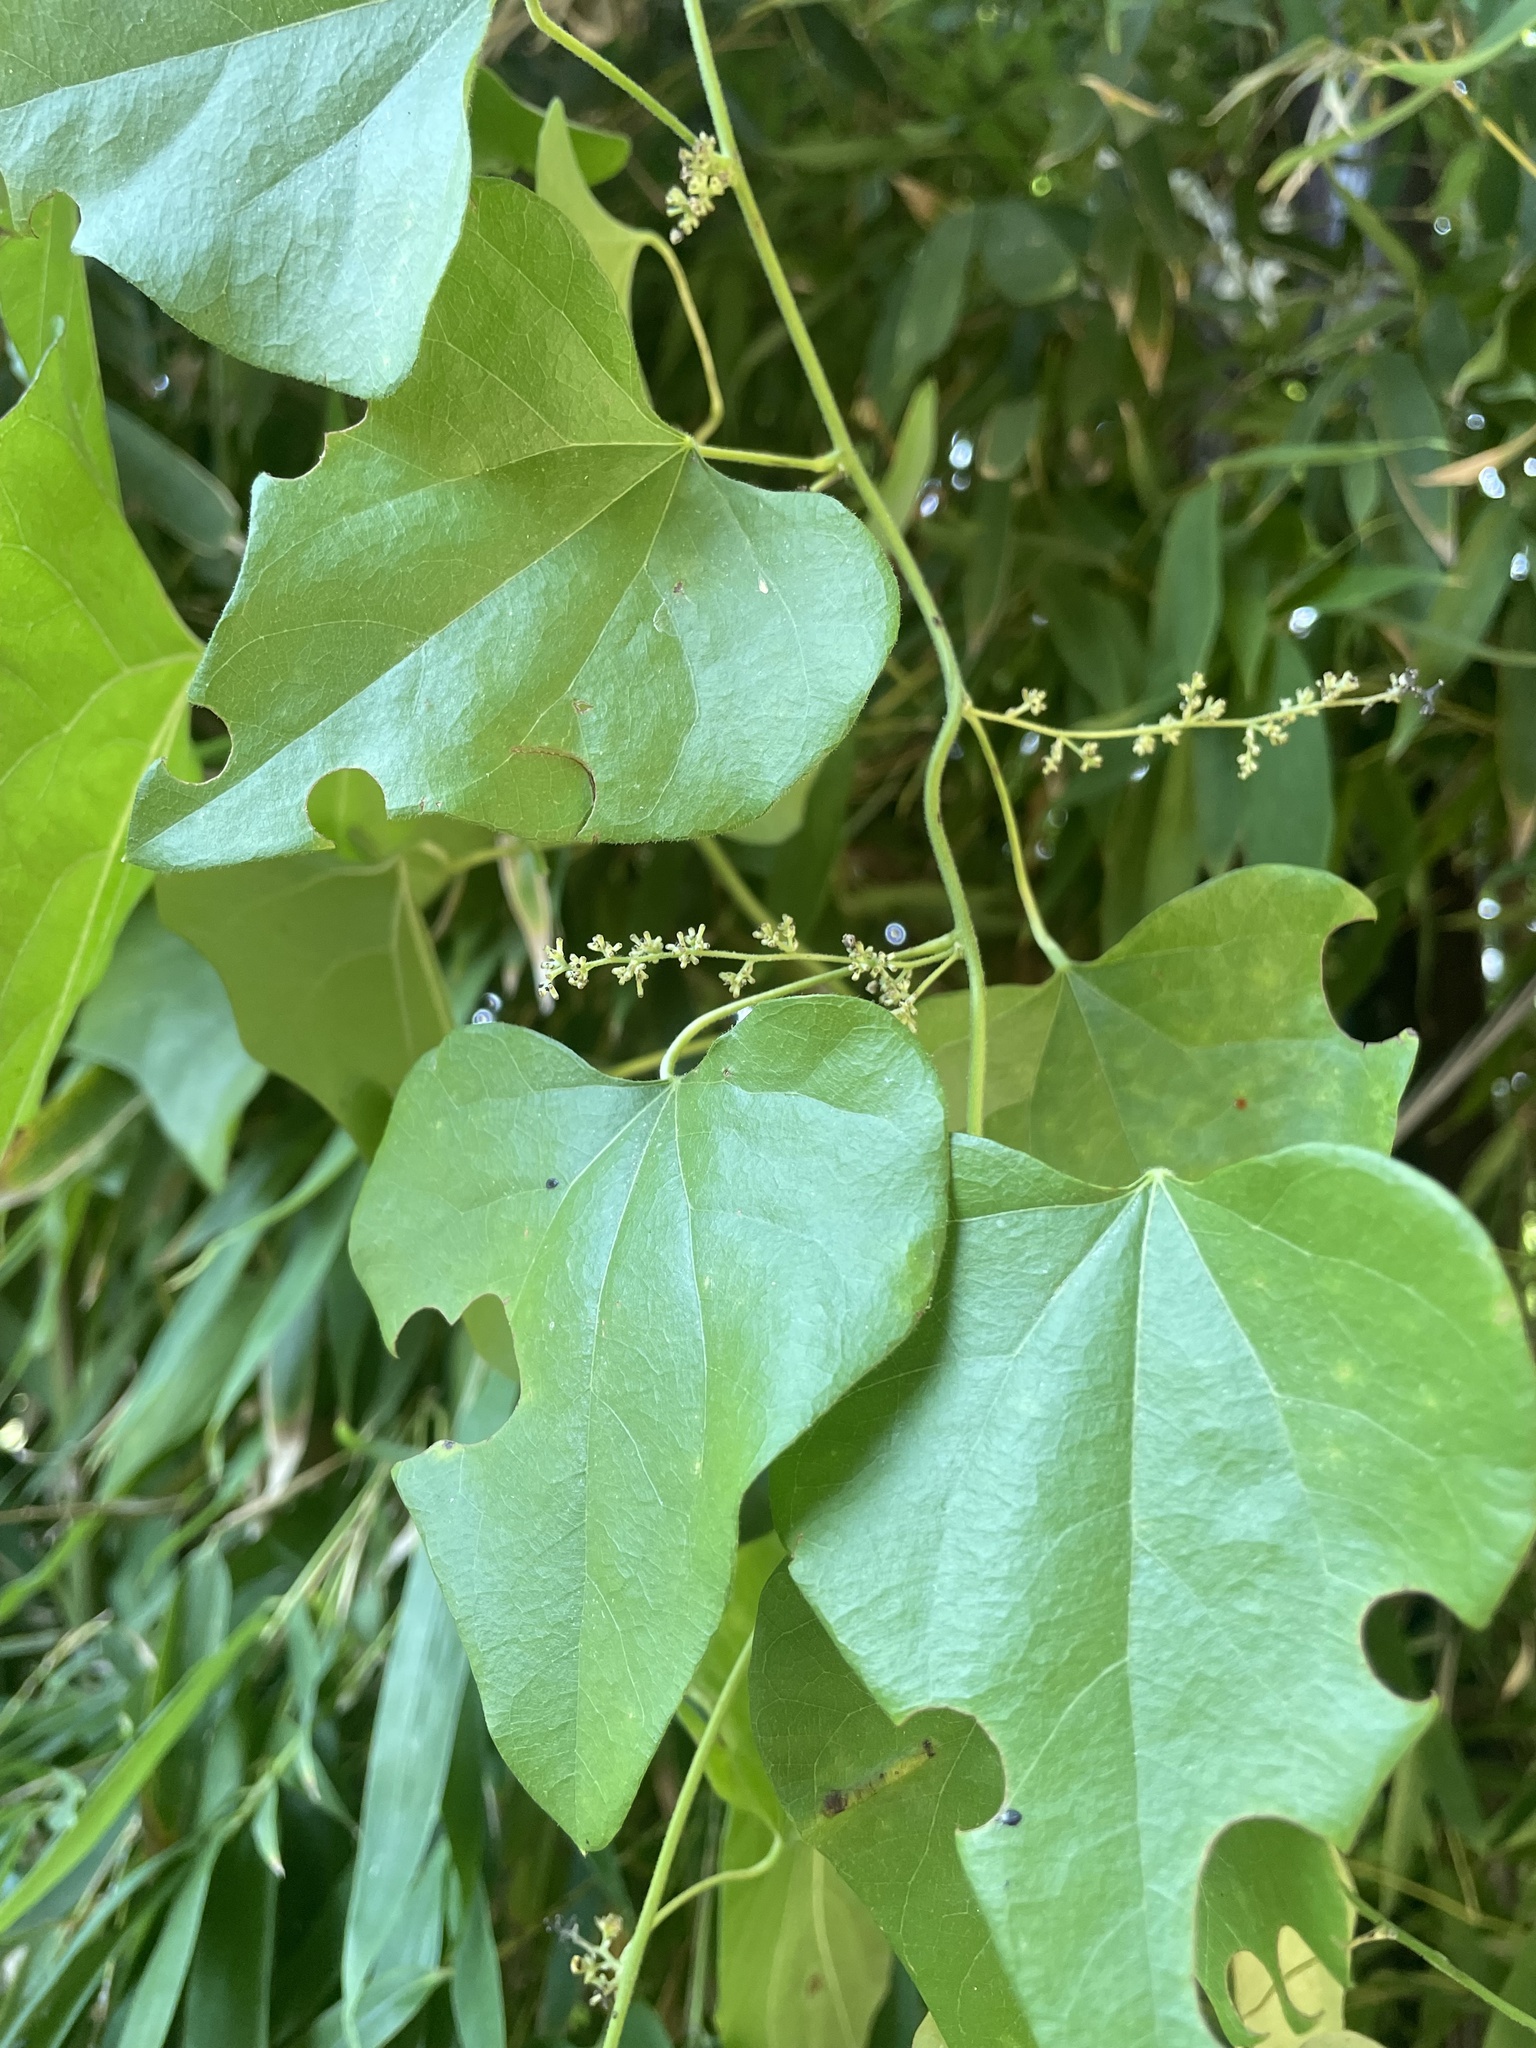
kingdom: Plantae
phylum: Tracheophyta
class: Magnoliopsida
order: Ranunculales
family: Menispermaceae
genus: Cocculus
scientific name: Cocculus carolinus
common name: Carolina moonseed
